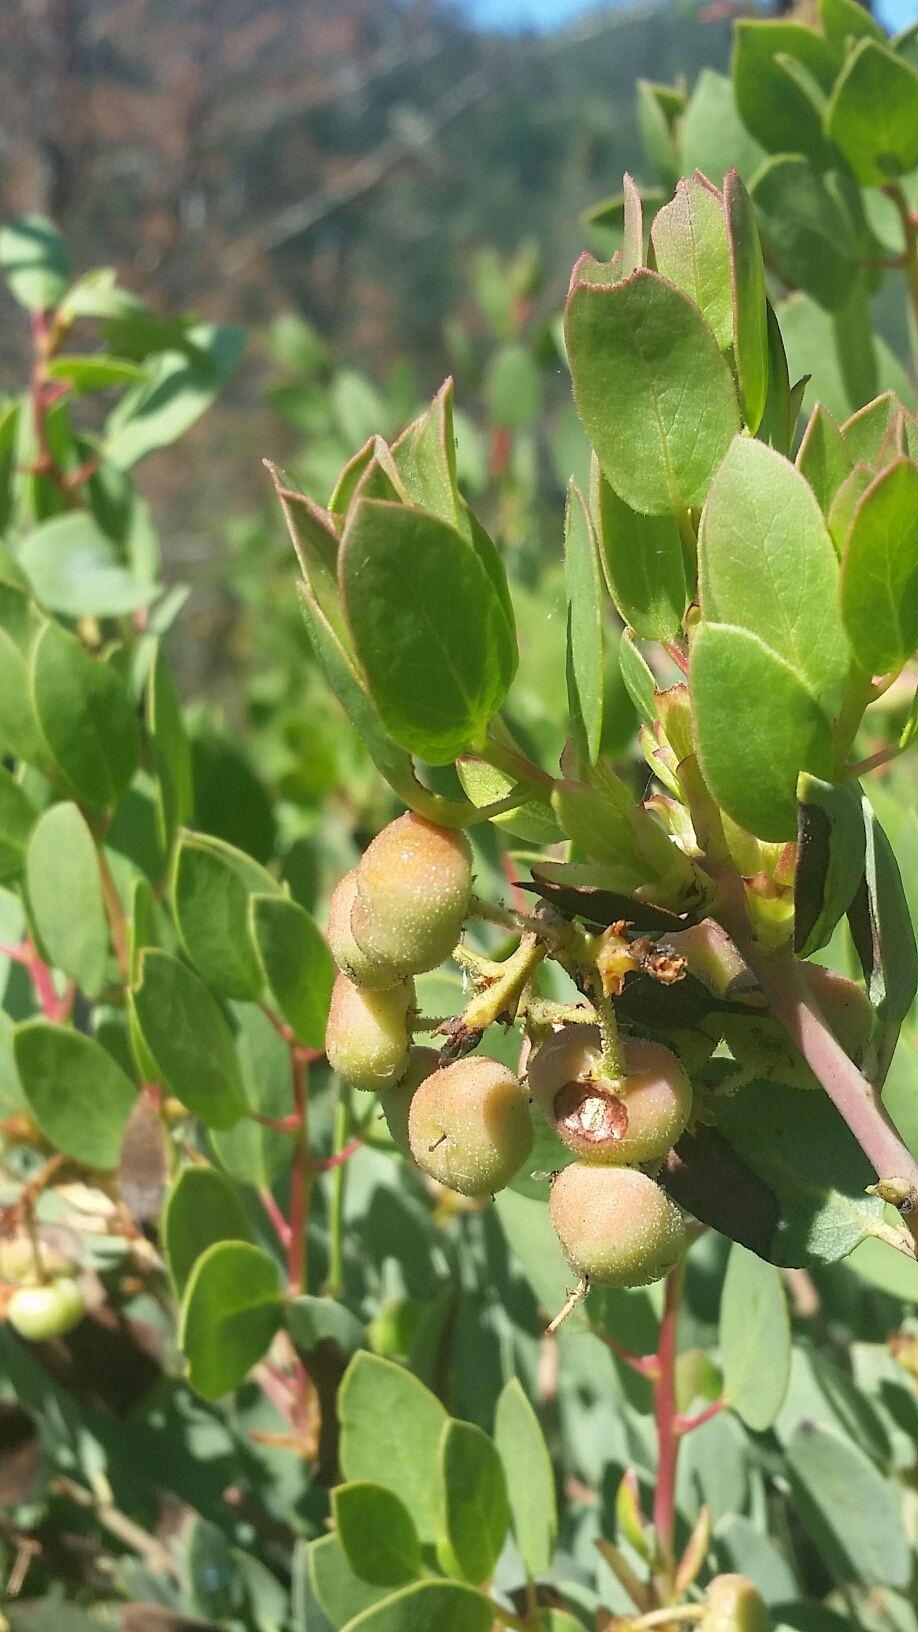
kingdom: Plantae
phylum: Tracheophyta
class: Magnoliopsida
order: Ericales
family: Ericaceae
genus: Arctostaphylos
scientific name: Arctostaphylos viscida
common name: White-leaf manzanita
